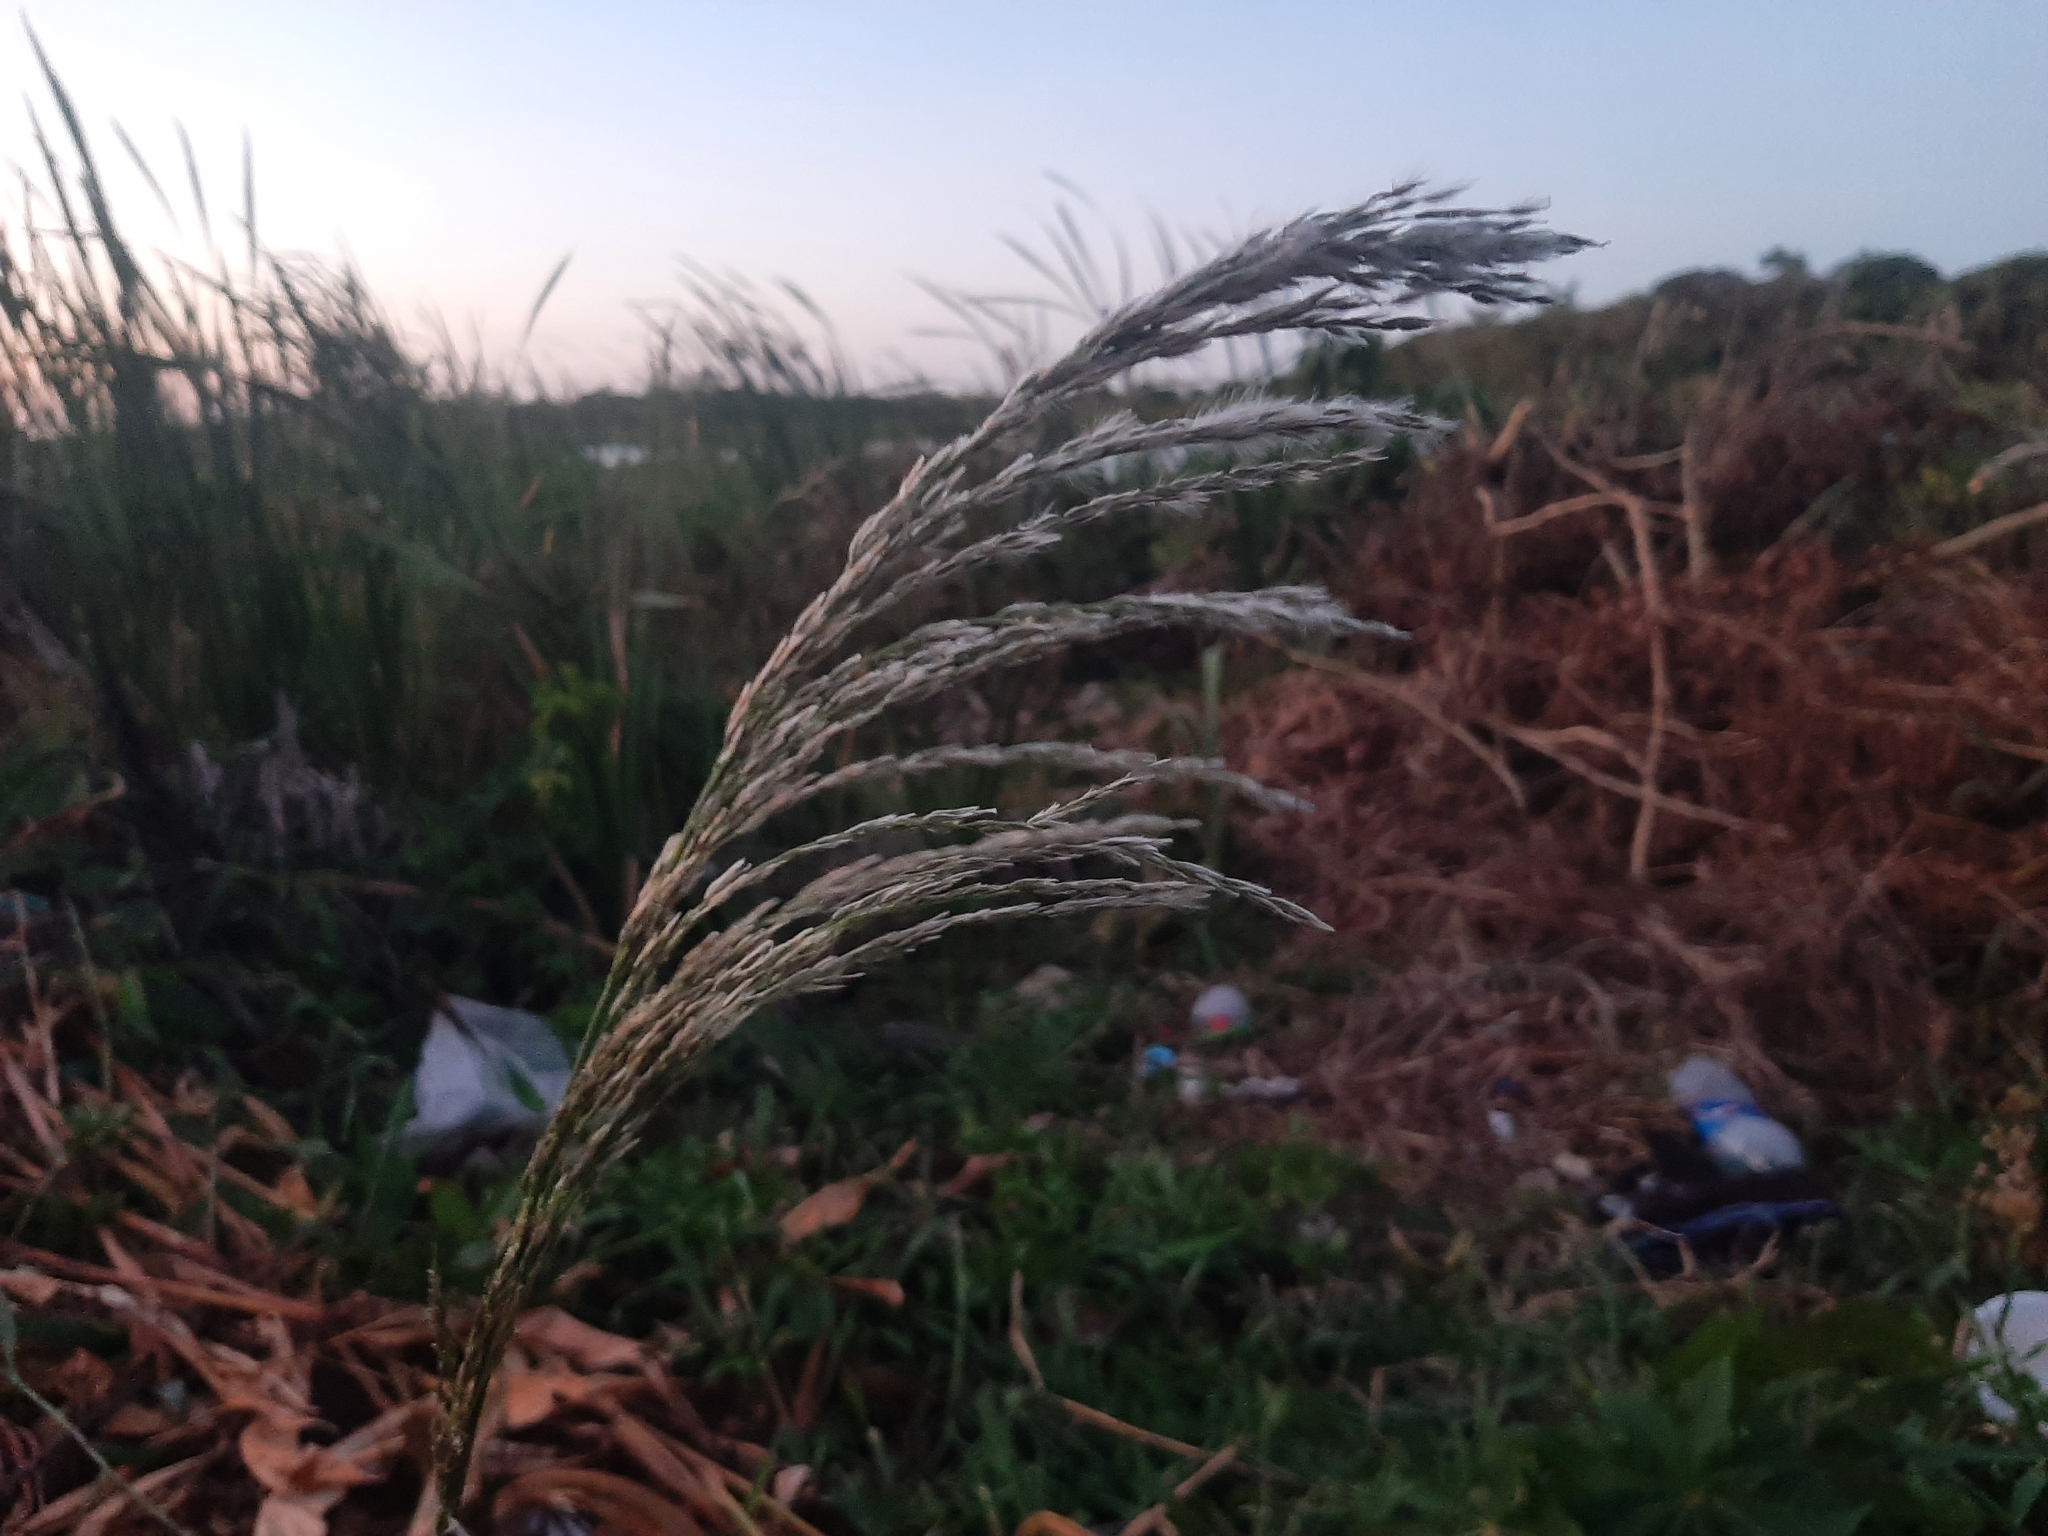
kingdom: Plantae
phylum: Tracheophyta
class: Liliopsida
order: Poales
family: Poaceae
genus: Digitaria
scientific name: Digitaria insularis
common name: Sourgrass
